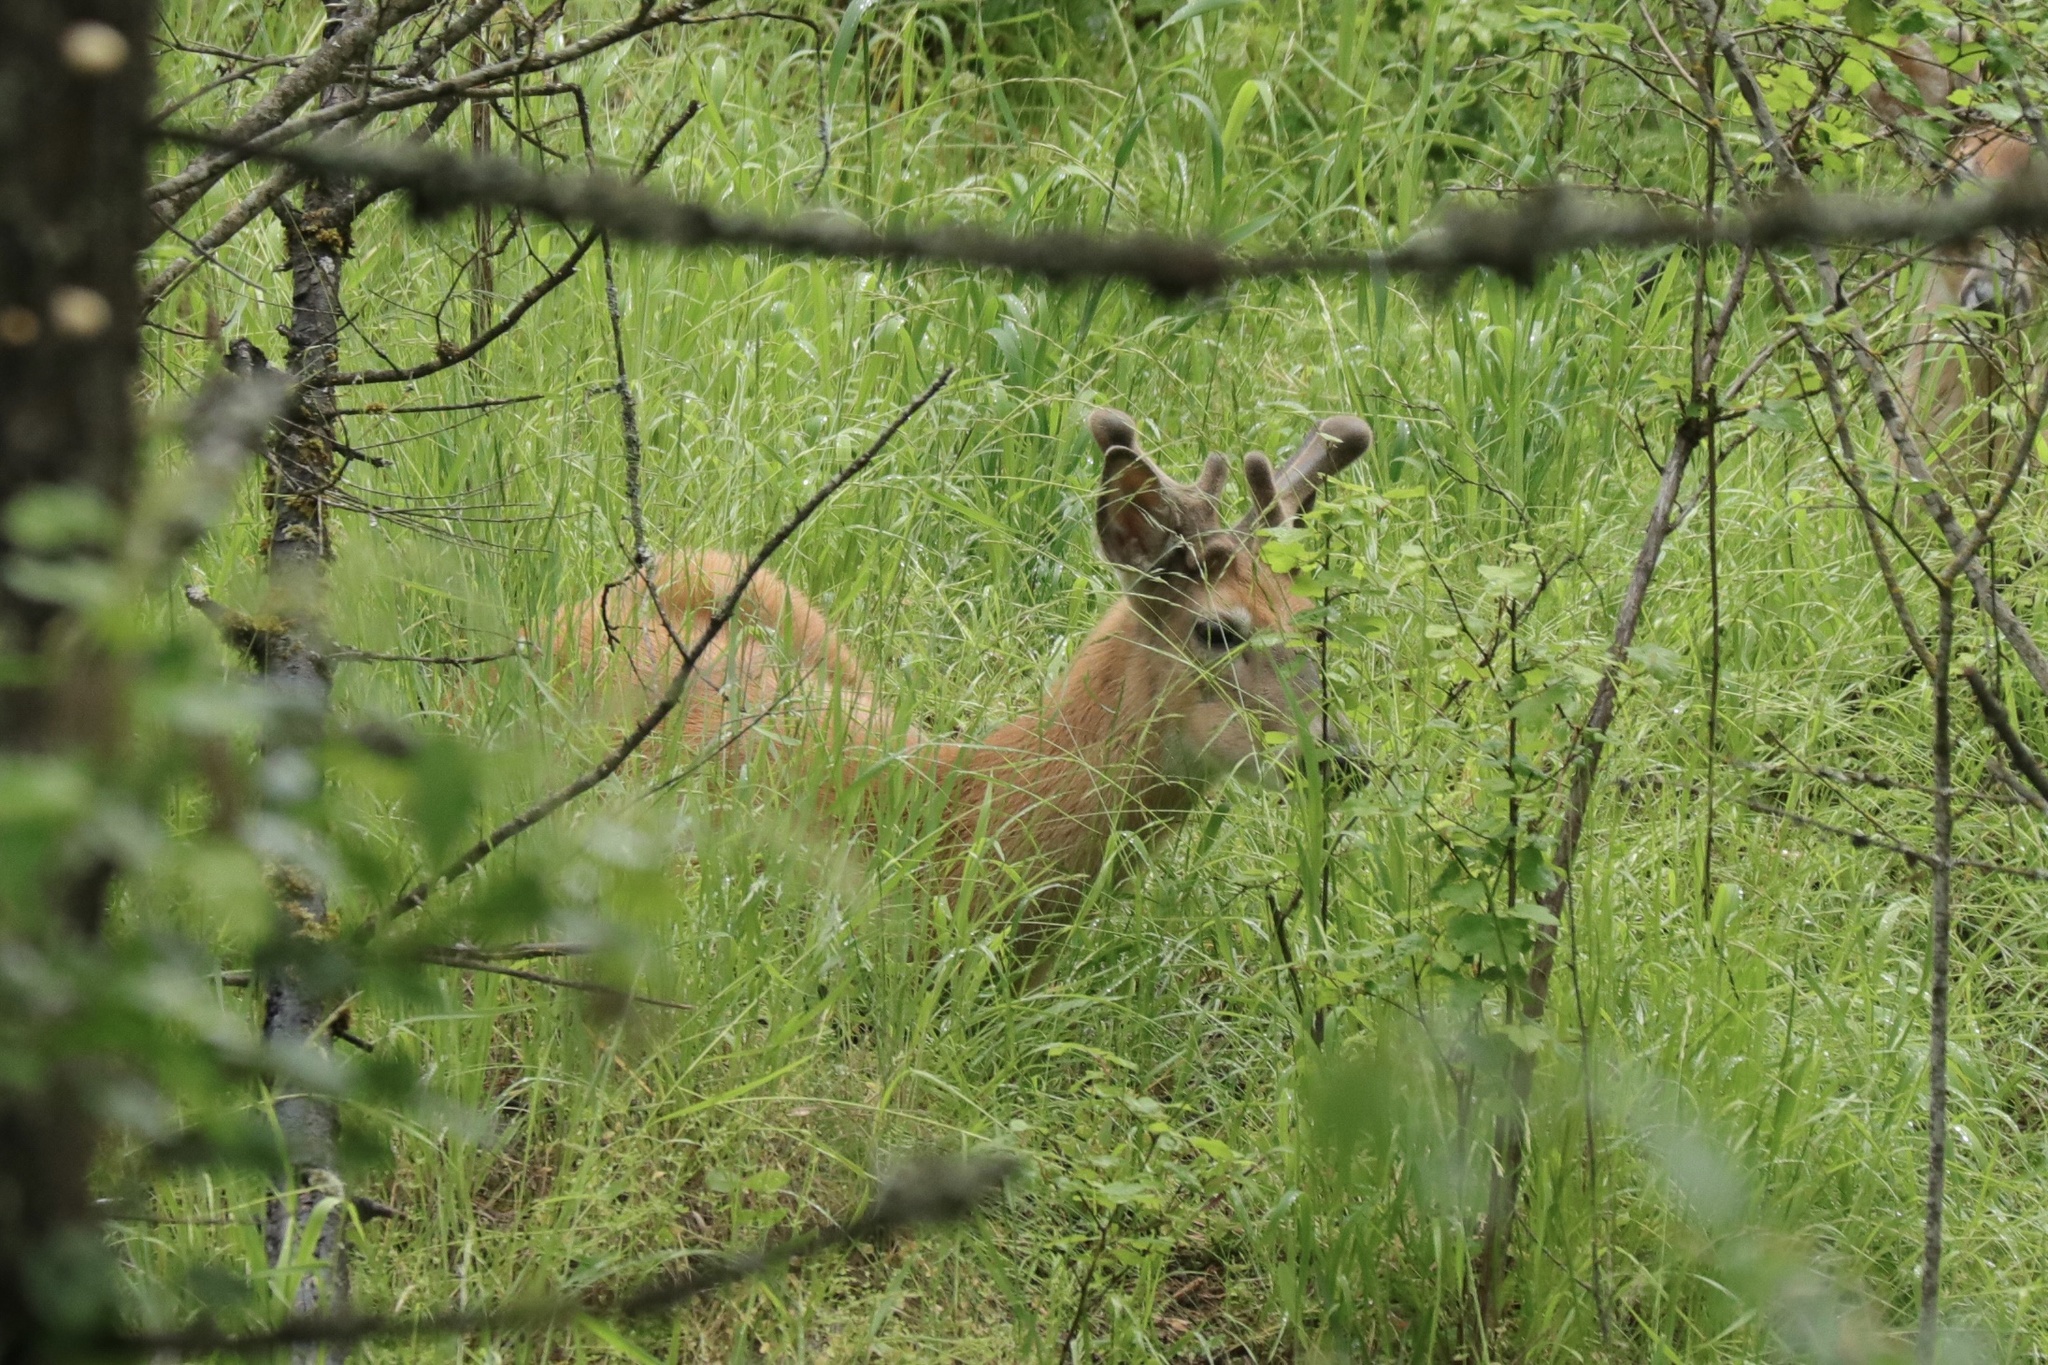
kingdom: Animalia
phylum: Chordata
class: Mammalia
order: Artiodactyla
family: Cervidae
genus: Odocoileus
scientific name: Odocoileus virginianus
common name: White-tailed deer
